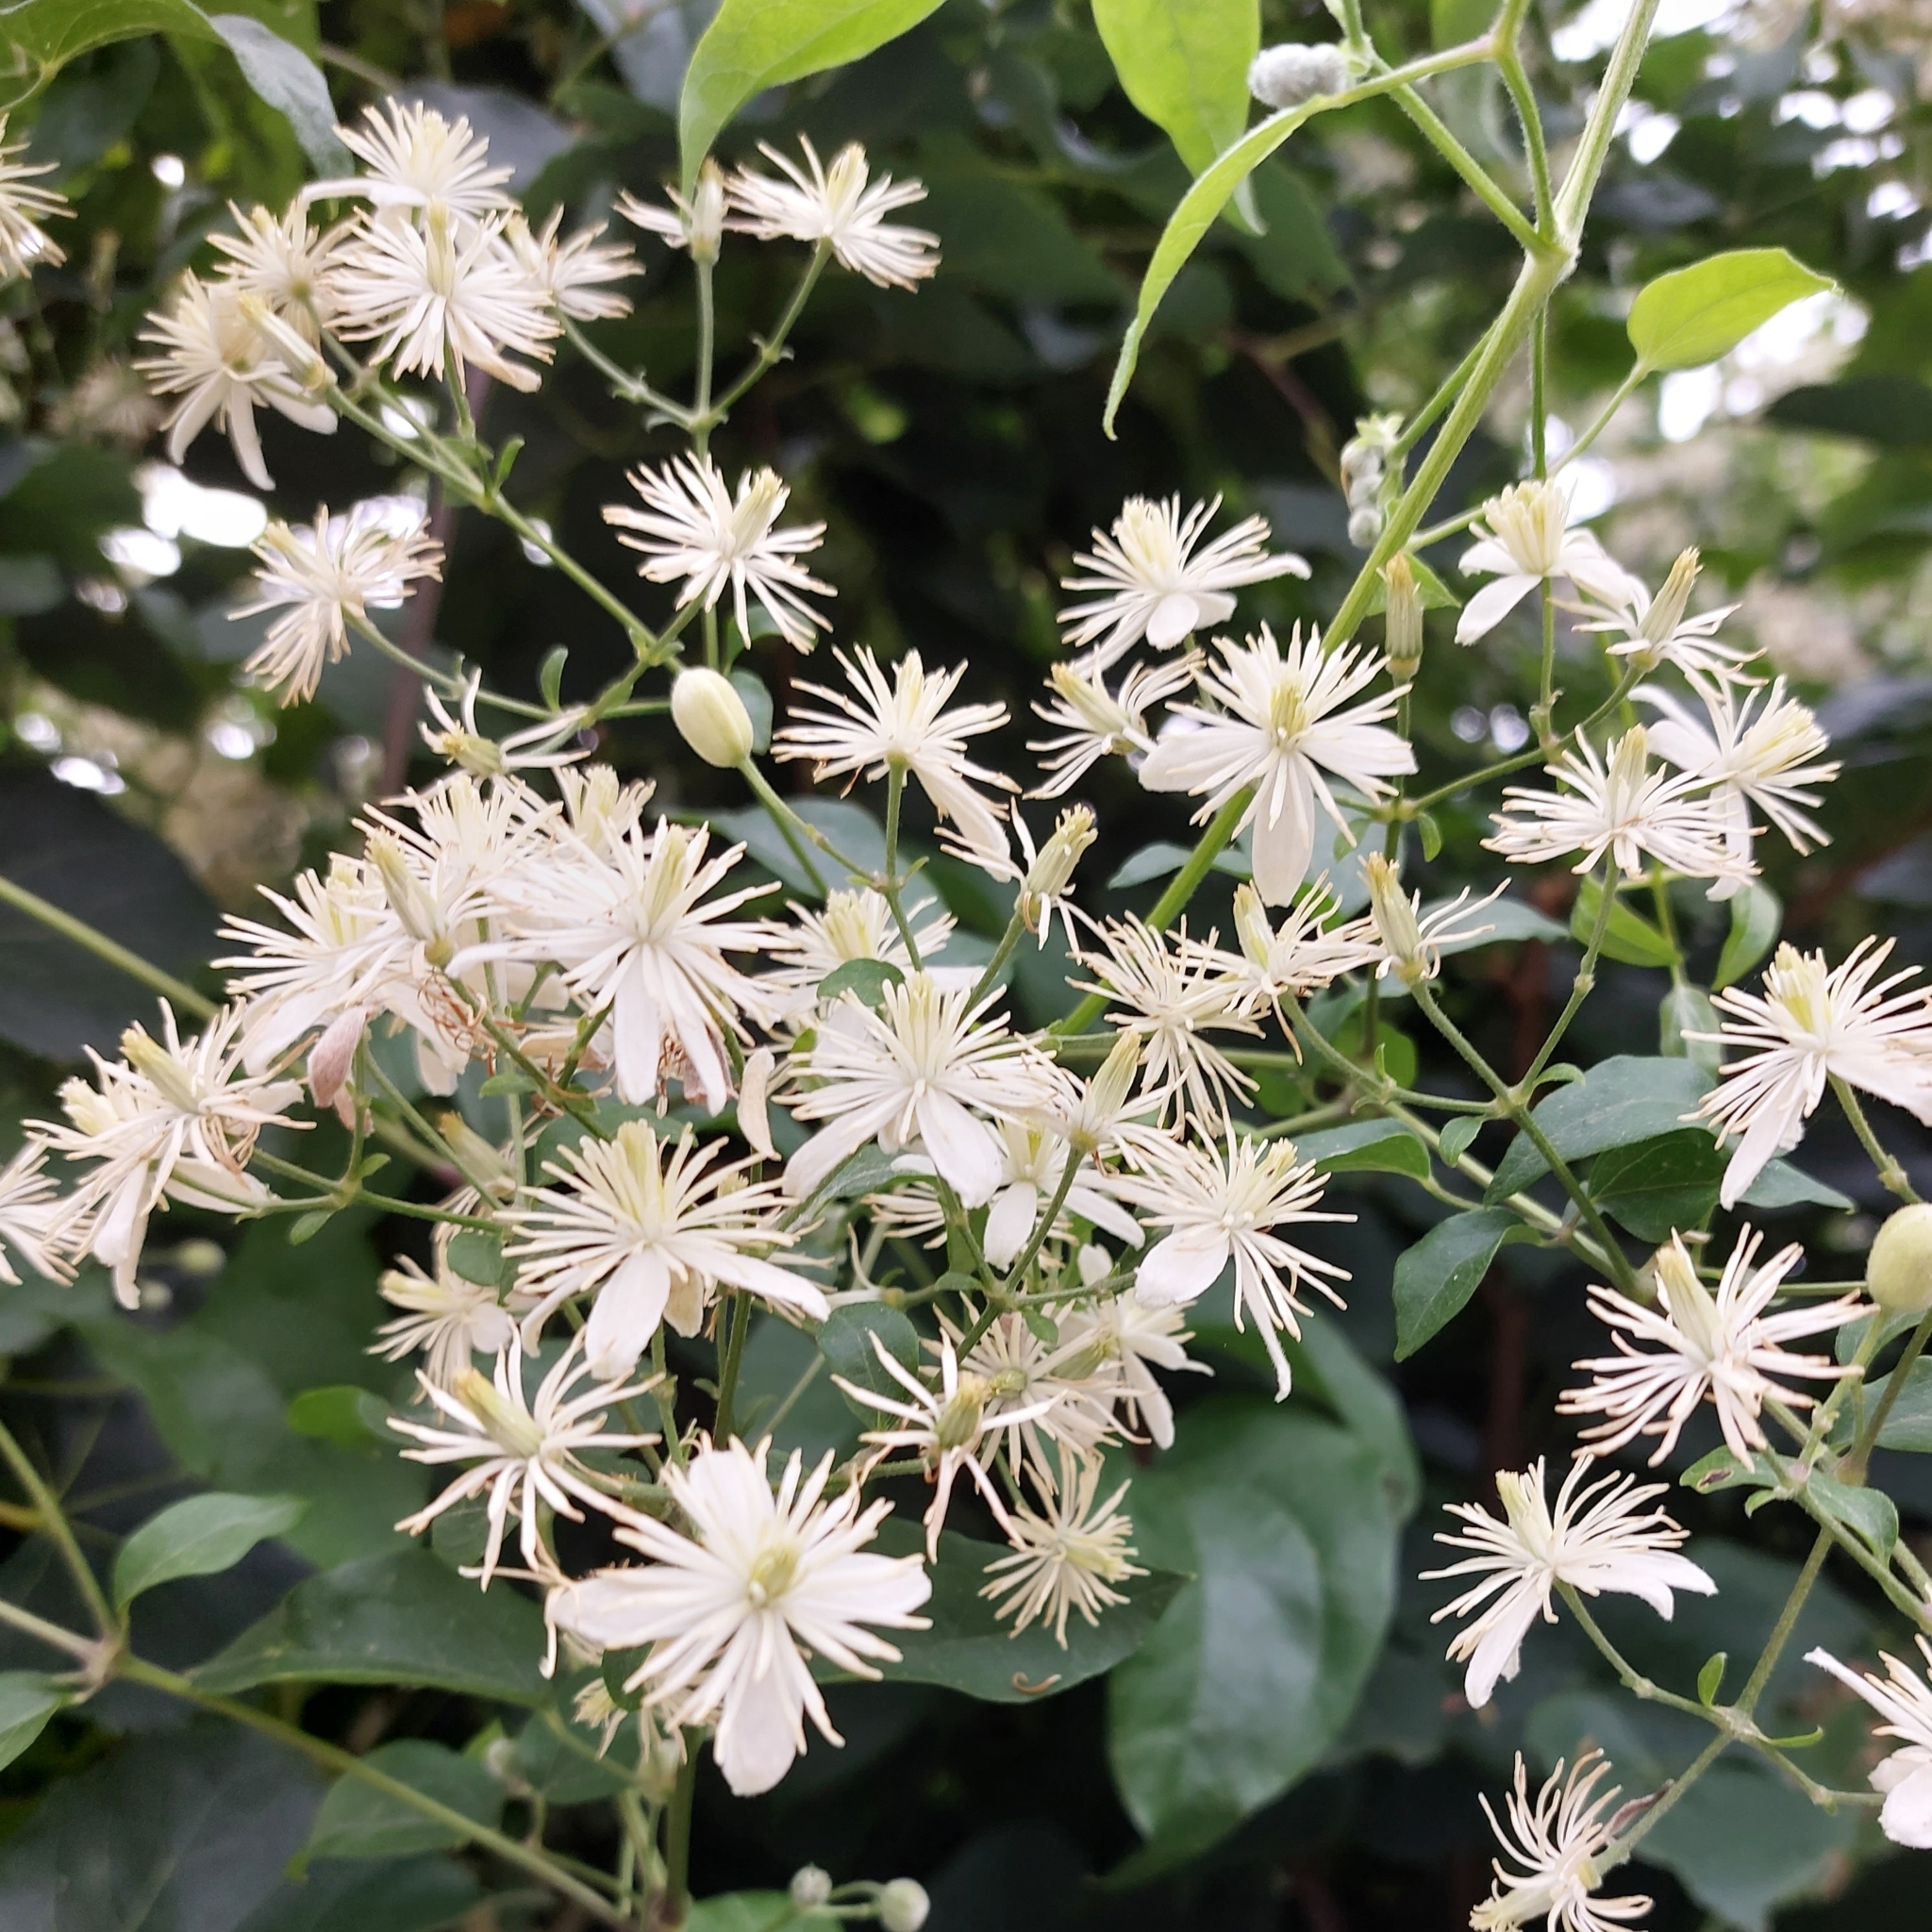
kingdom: Plantae
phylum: Tracheophyta
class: Magnoliopsida
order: Ranunculales
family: Ranunculaceae
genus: Clematis
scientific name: Clematis vitalba
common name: Evergreen clematis
